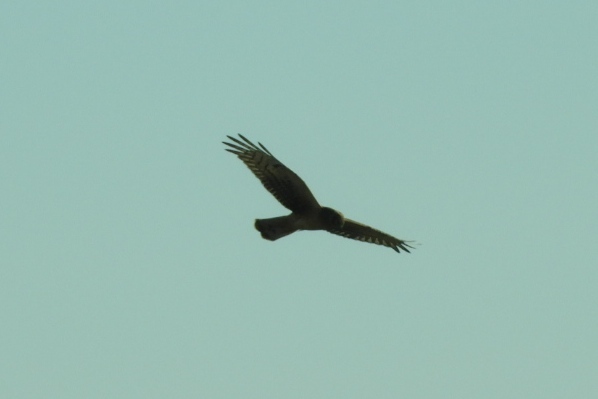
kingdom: Animalia
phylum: Chordata
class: Aves
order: Accipitriformes
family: Accipitridae
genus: Circus
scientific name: Circus cyaneus
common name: Hen harrier
